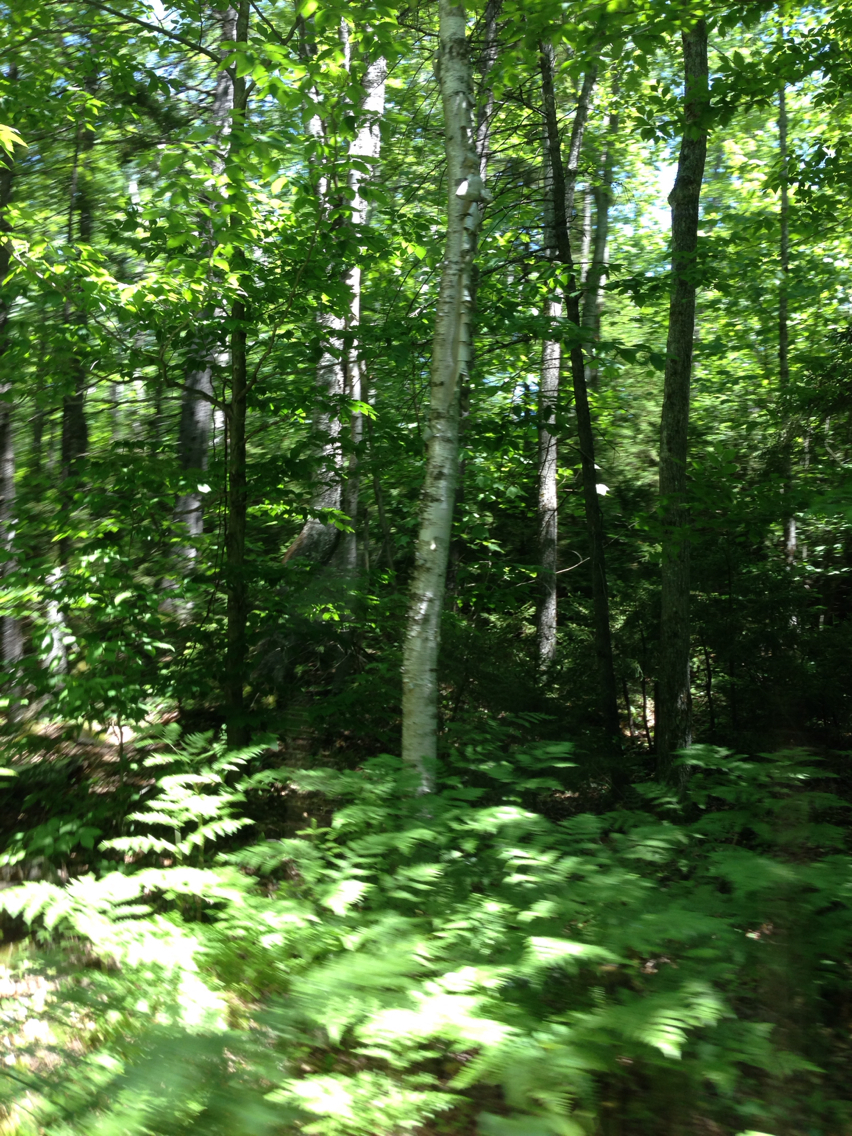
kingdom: Plantae
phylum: Tracheophyta
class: Magnoliopsida
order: Fagales
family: Betulaceae
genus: Betula
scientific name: Betula papyrifera
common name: Paper birch
